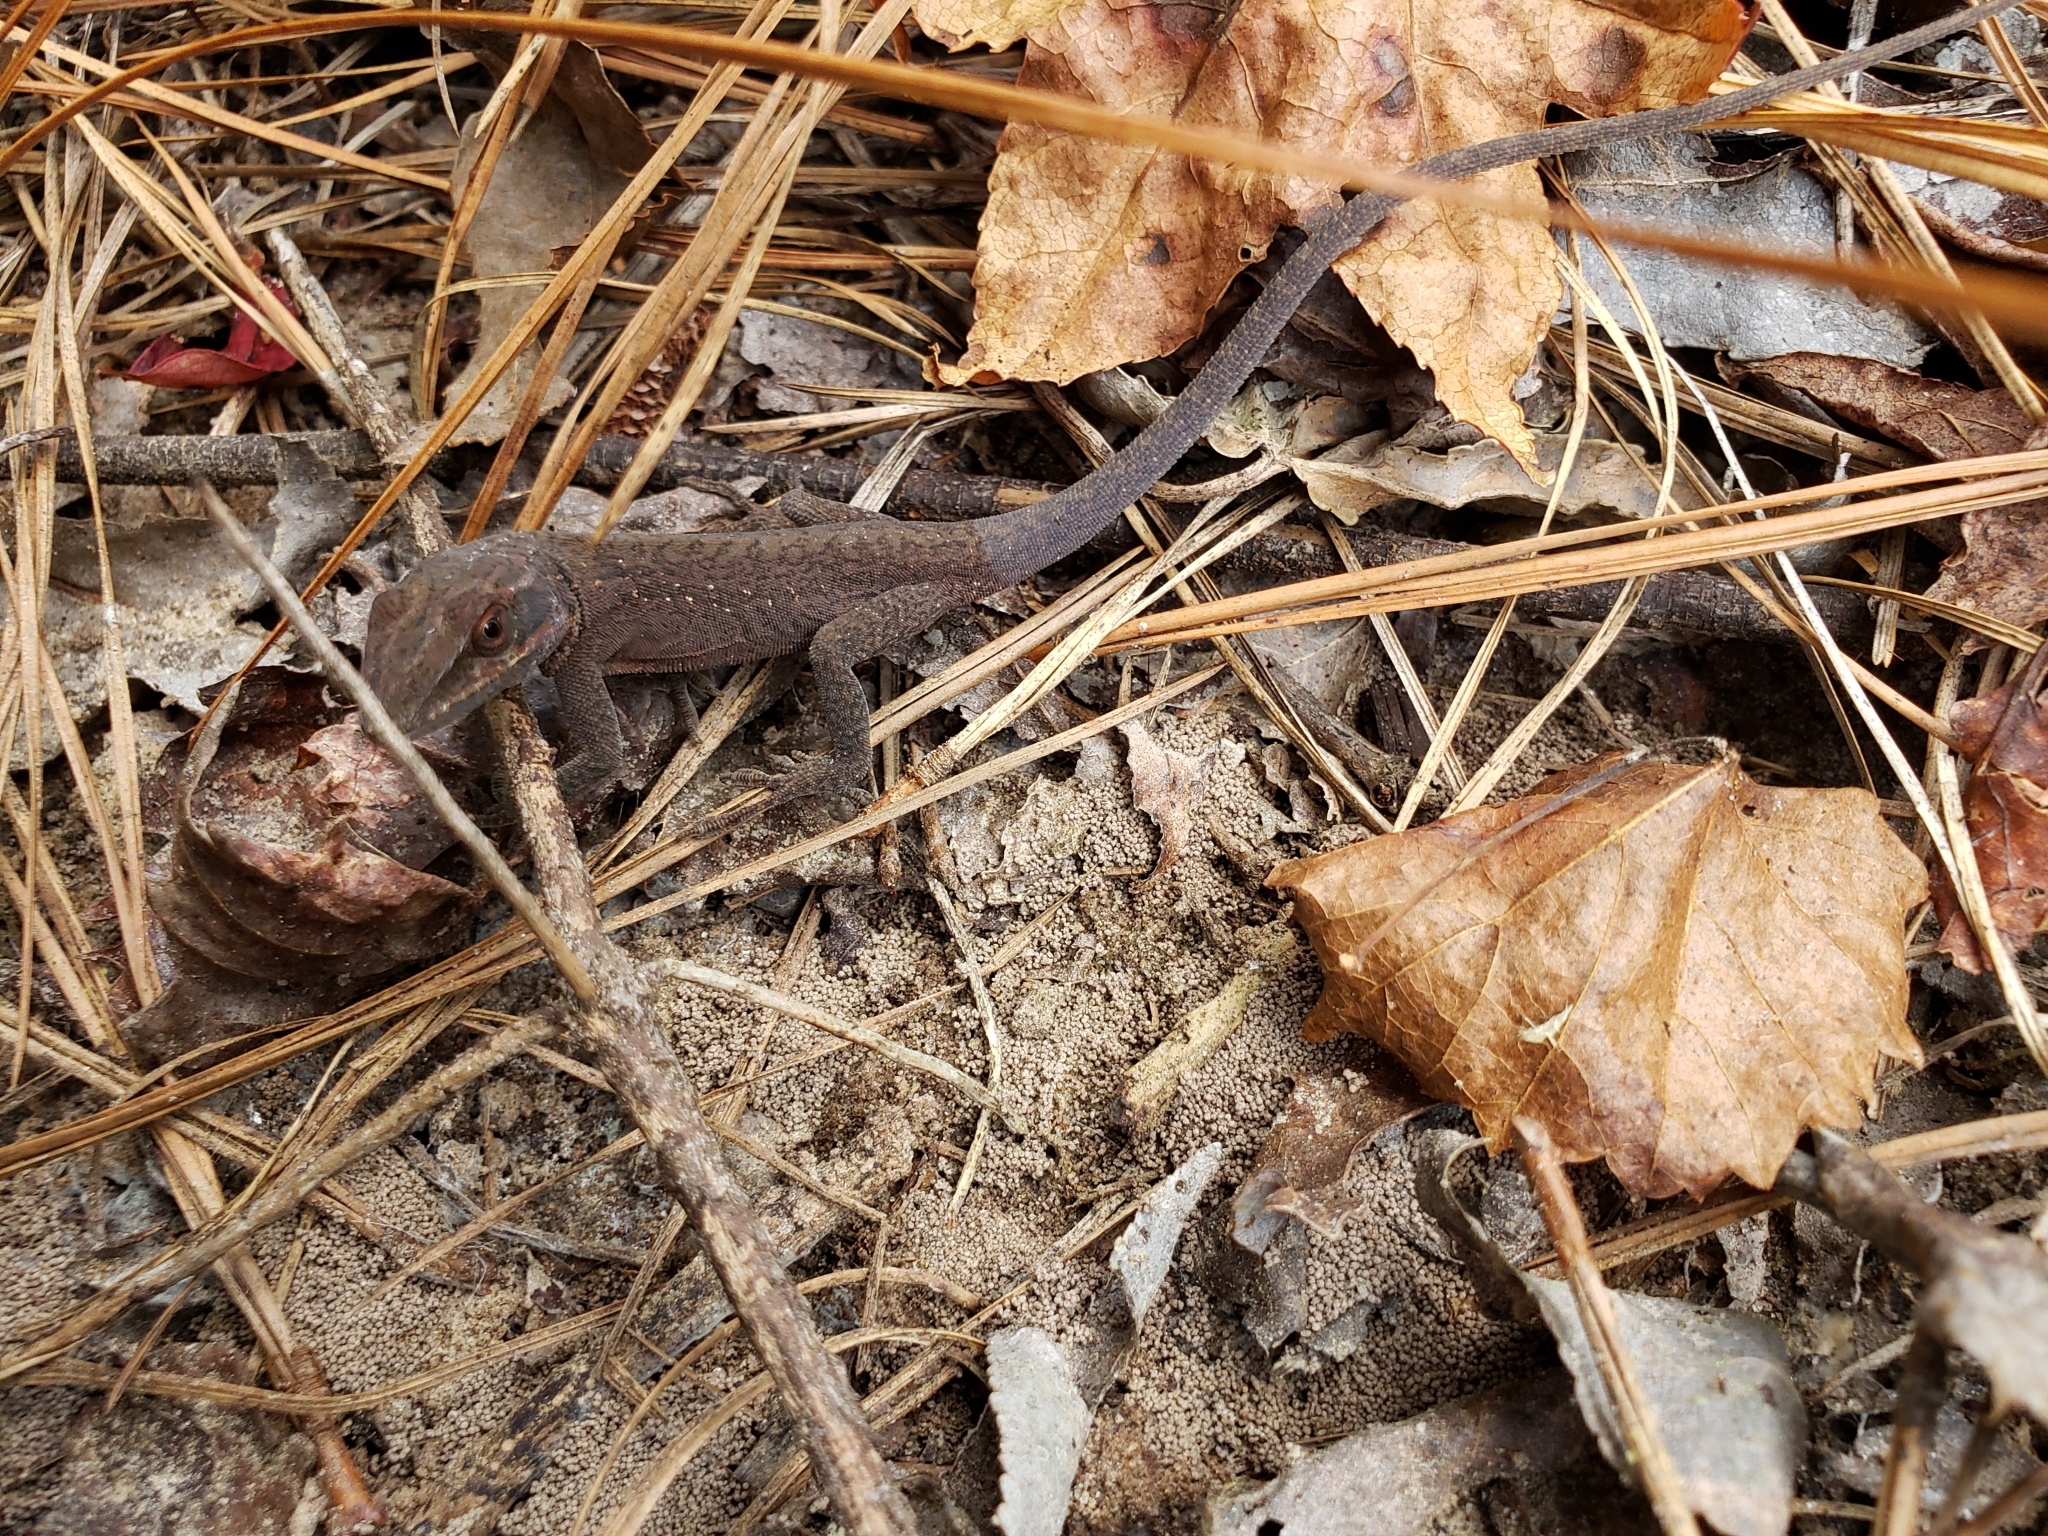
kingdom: Animalia
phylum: Chordata
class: Squamata
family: Dactyloidae
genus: Anolis
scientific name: Anolis carolinensis
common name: Green anole
